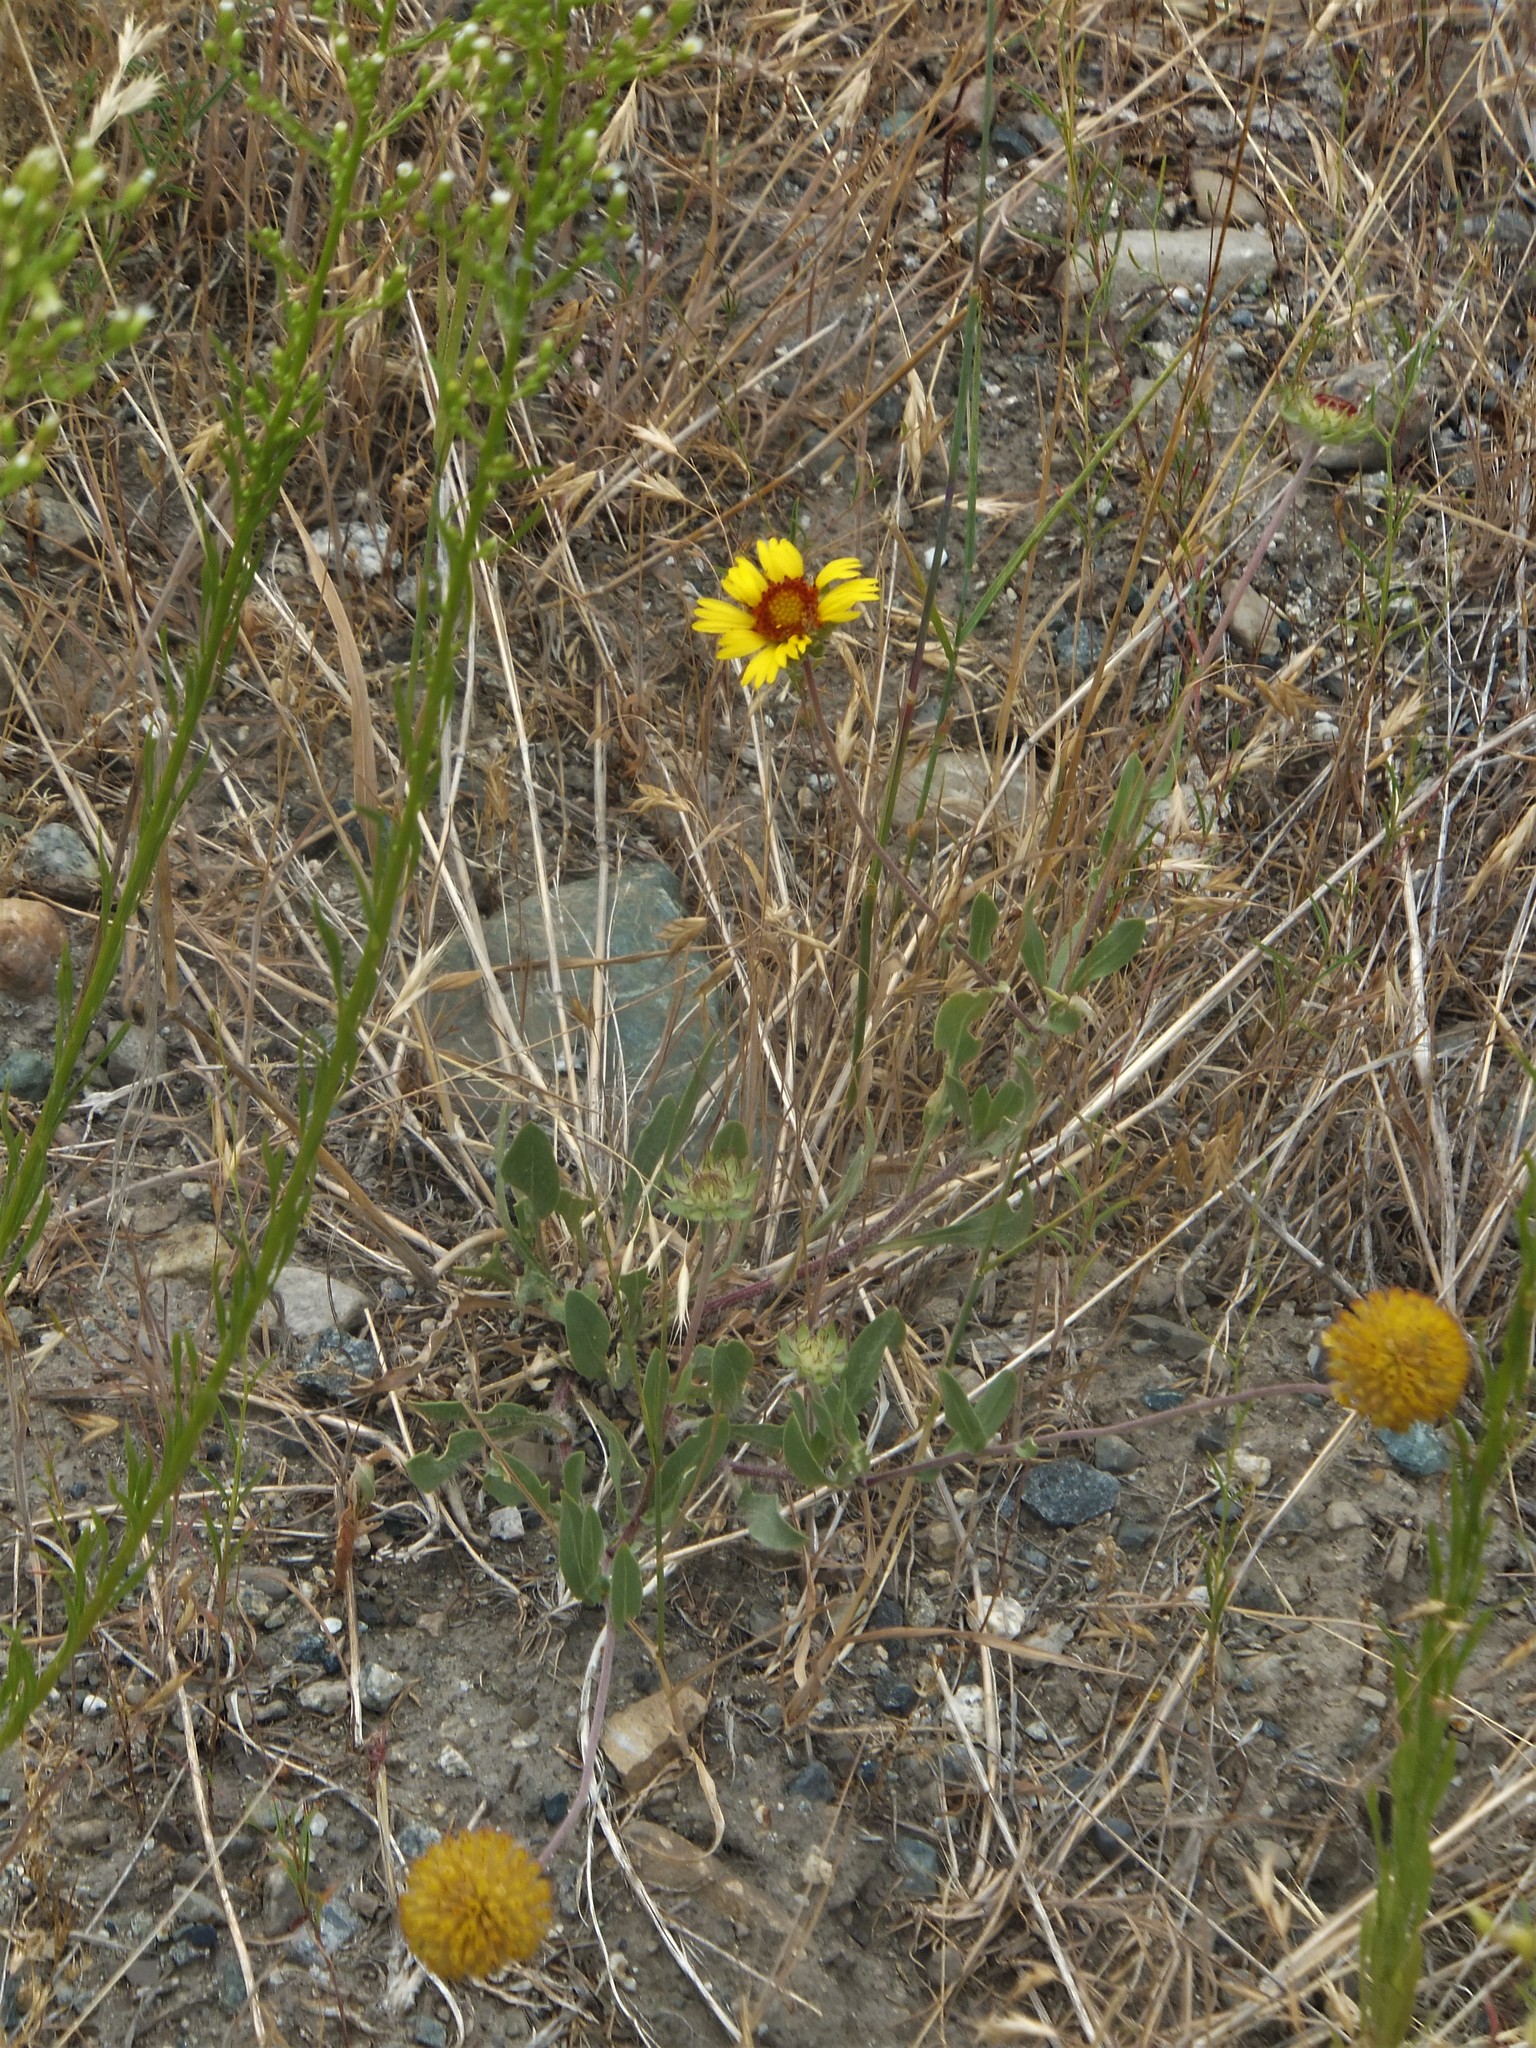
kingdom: Plantae
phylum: Tracheophyta
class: Magnoliopsida
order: Asterales
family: Asteraceae
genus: Gaillardia
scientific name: Gaillardia aristata
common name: Blanket-flower
